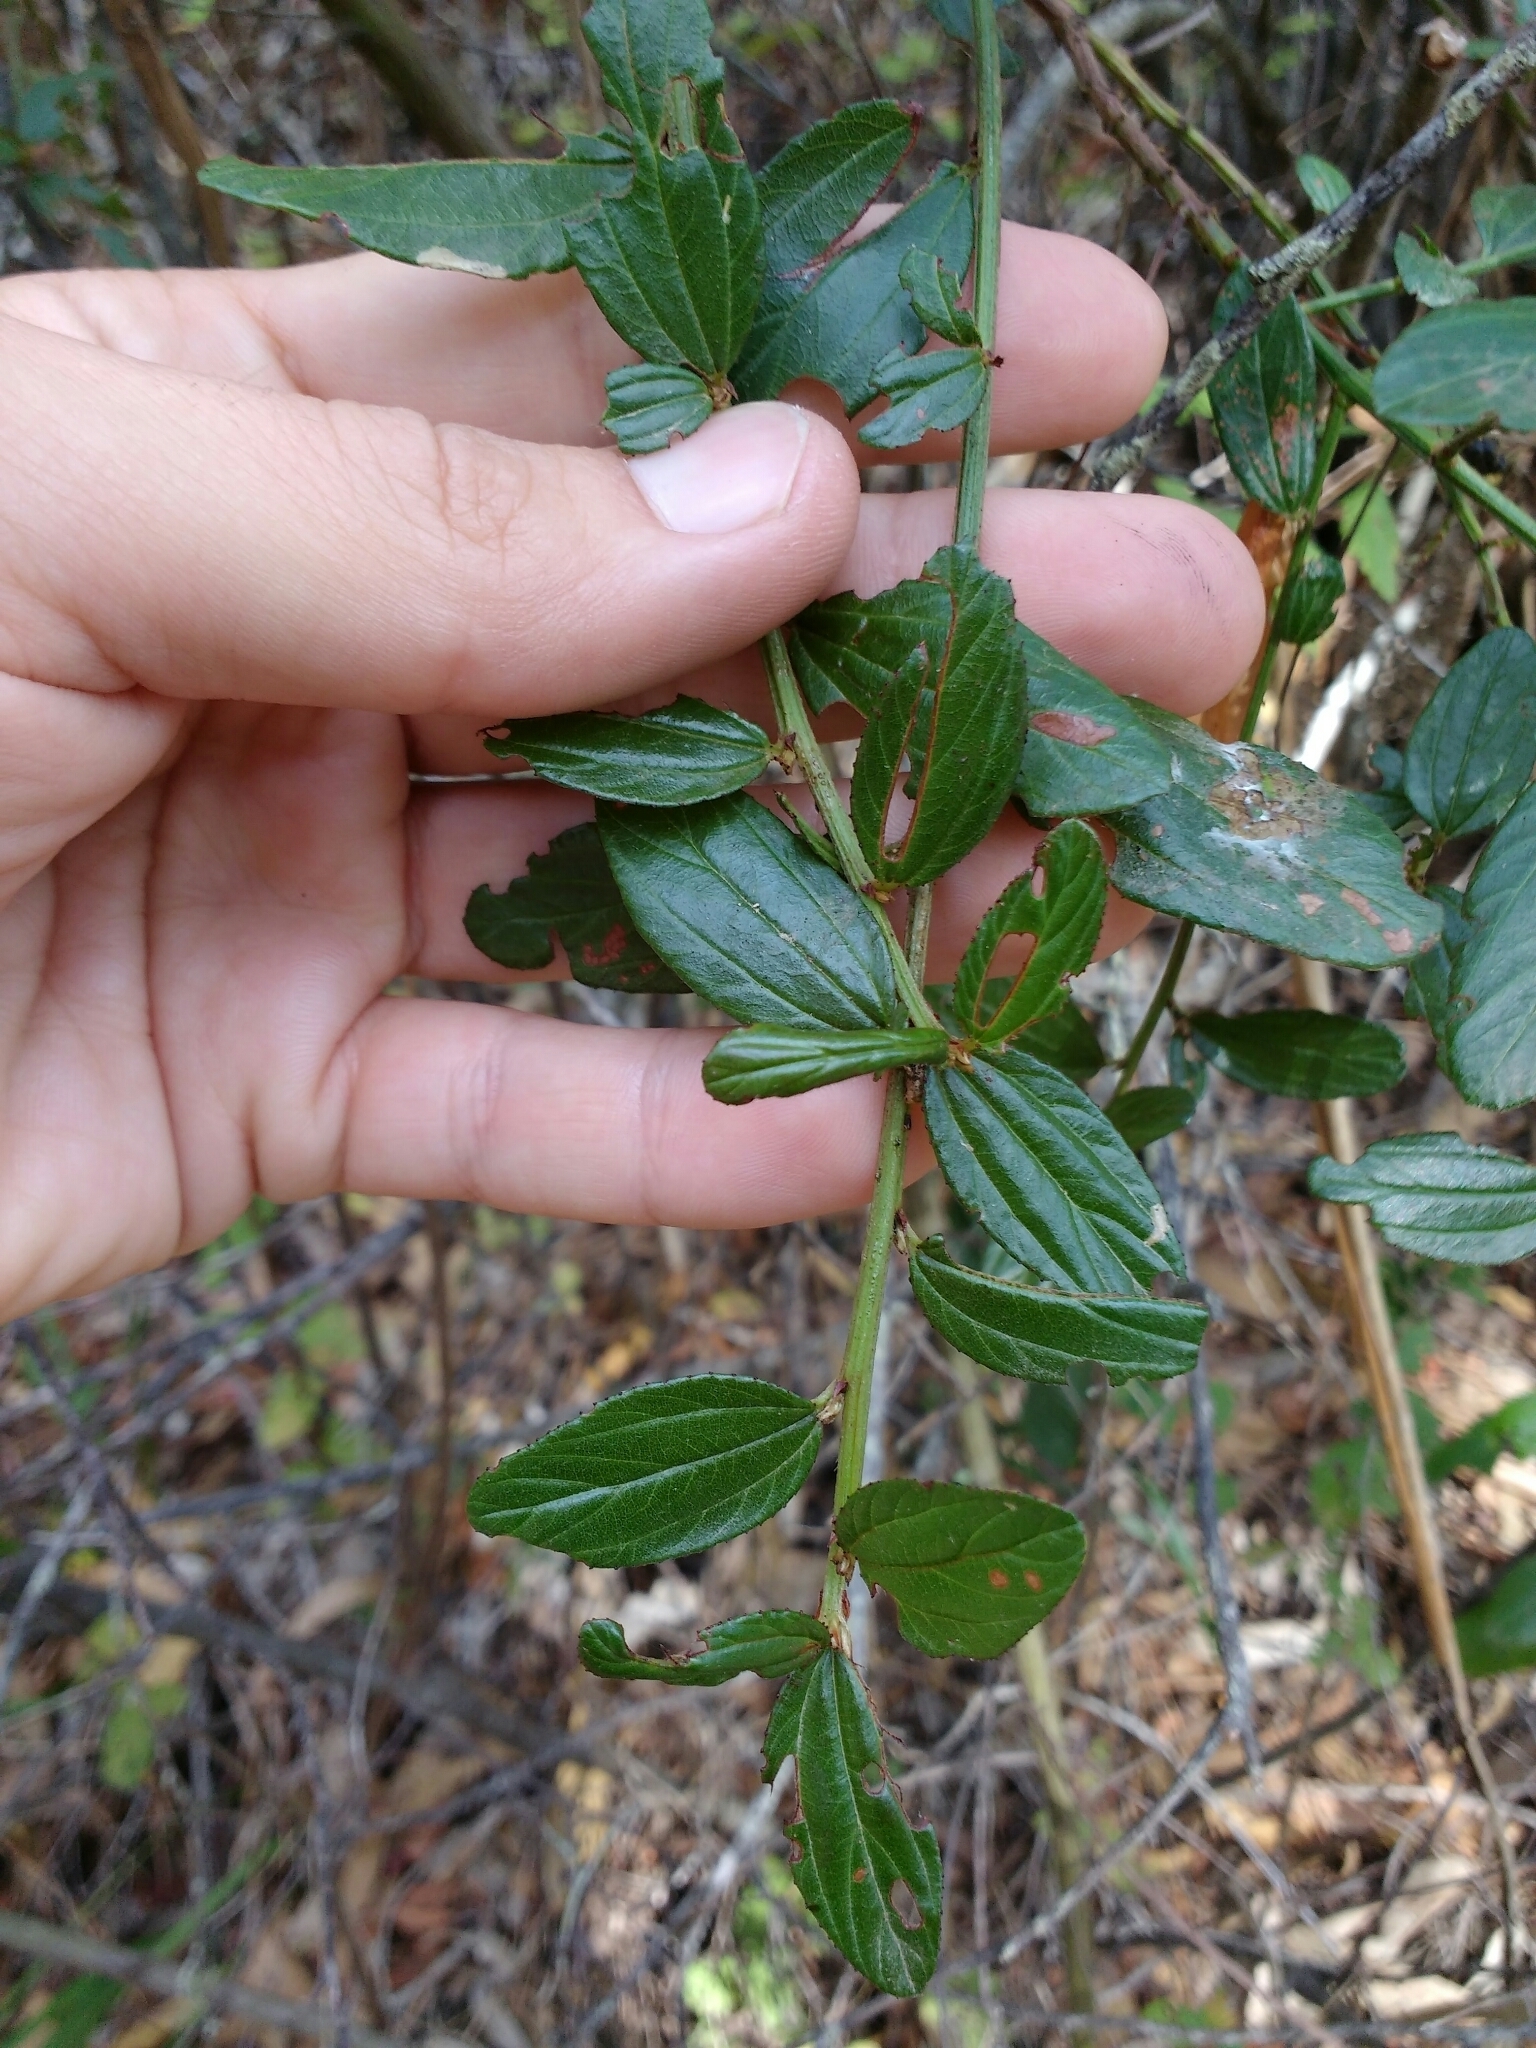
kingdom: Plantae
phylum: Tracheophyta
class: Magnoliopsida
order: Rosales
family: Rhamnaceae
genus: Ceanothus
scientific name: Ceanothus thyrsiflorus
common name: California-lilac
